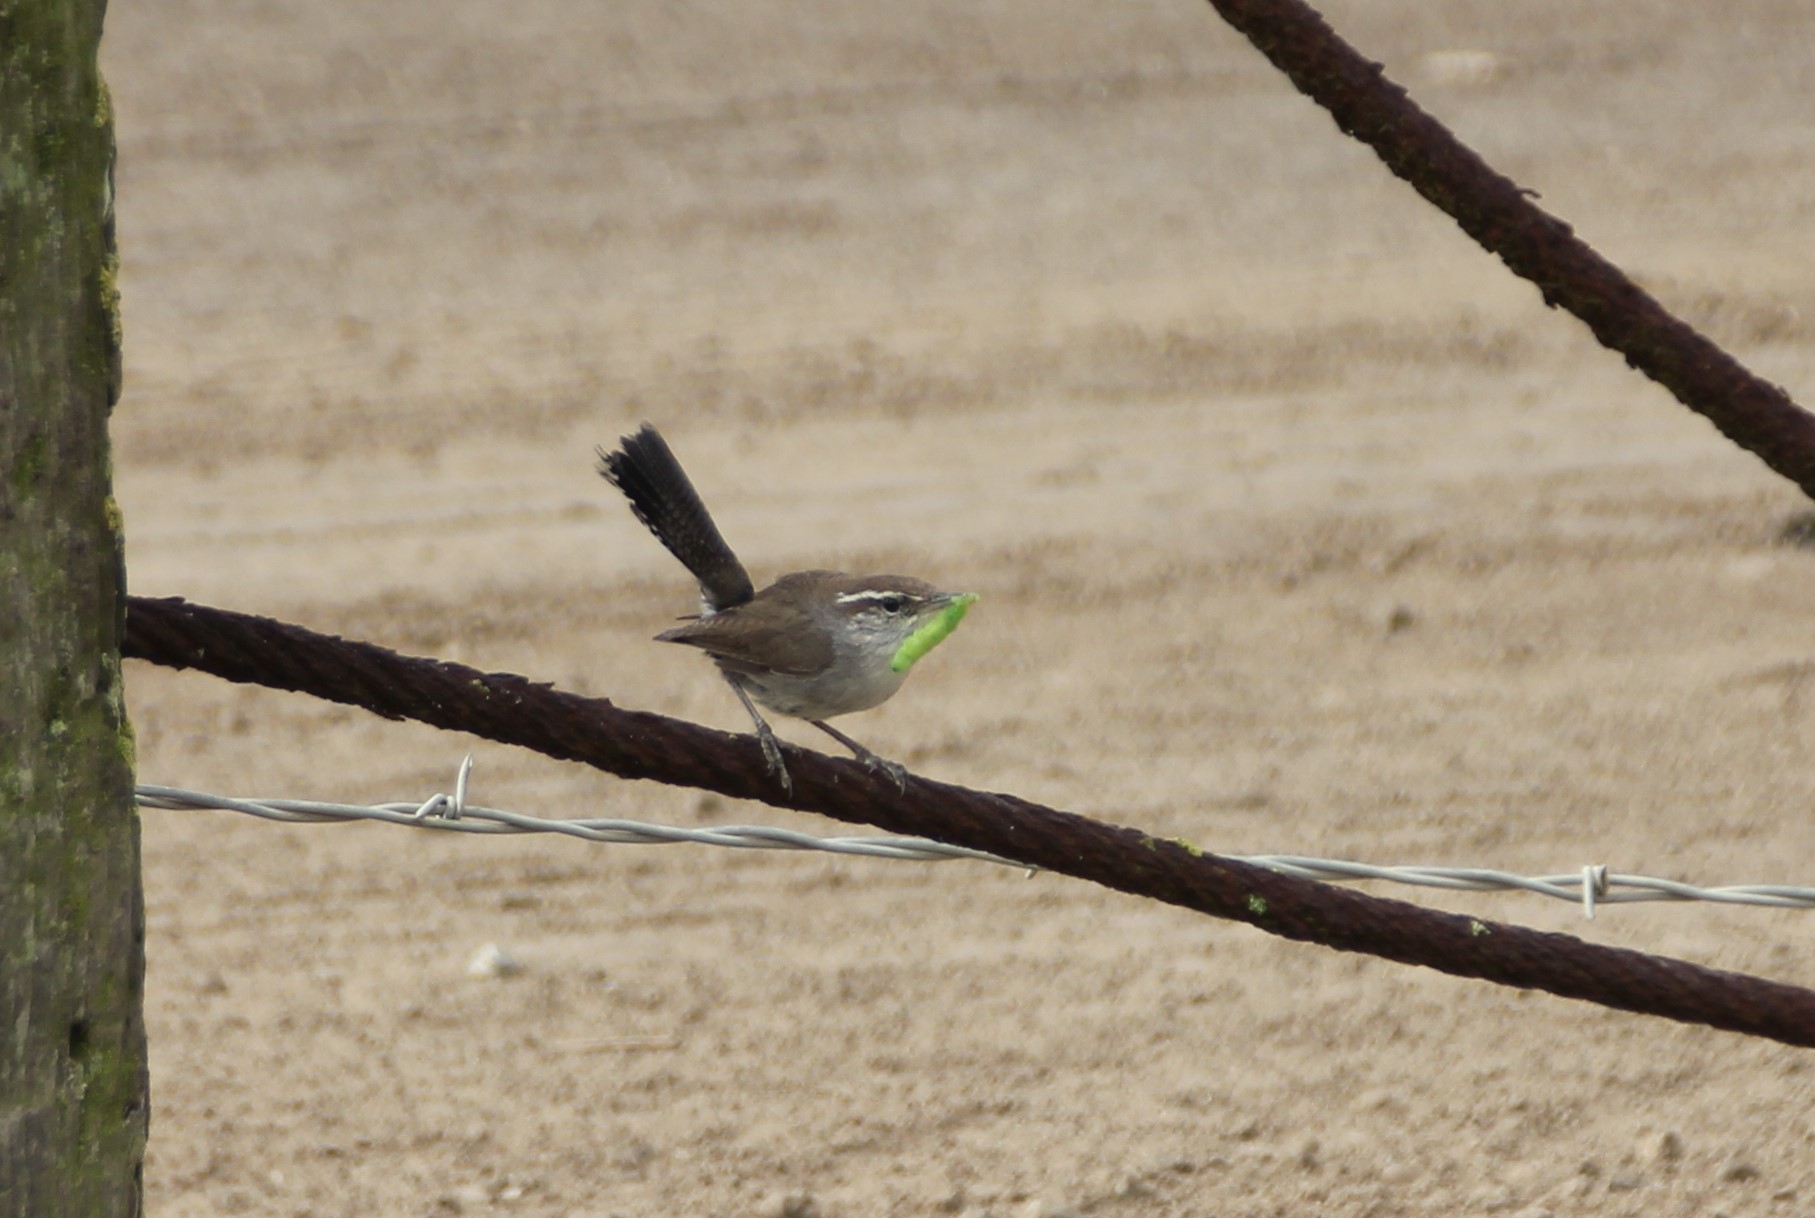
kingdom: Animalia
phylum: Chordata
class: Aves
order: Passeriformes
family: Troglodytidae
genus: Thryomanes
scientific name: Thryomanes bewickii
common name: Bewick's wren
